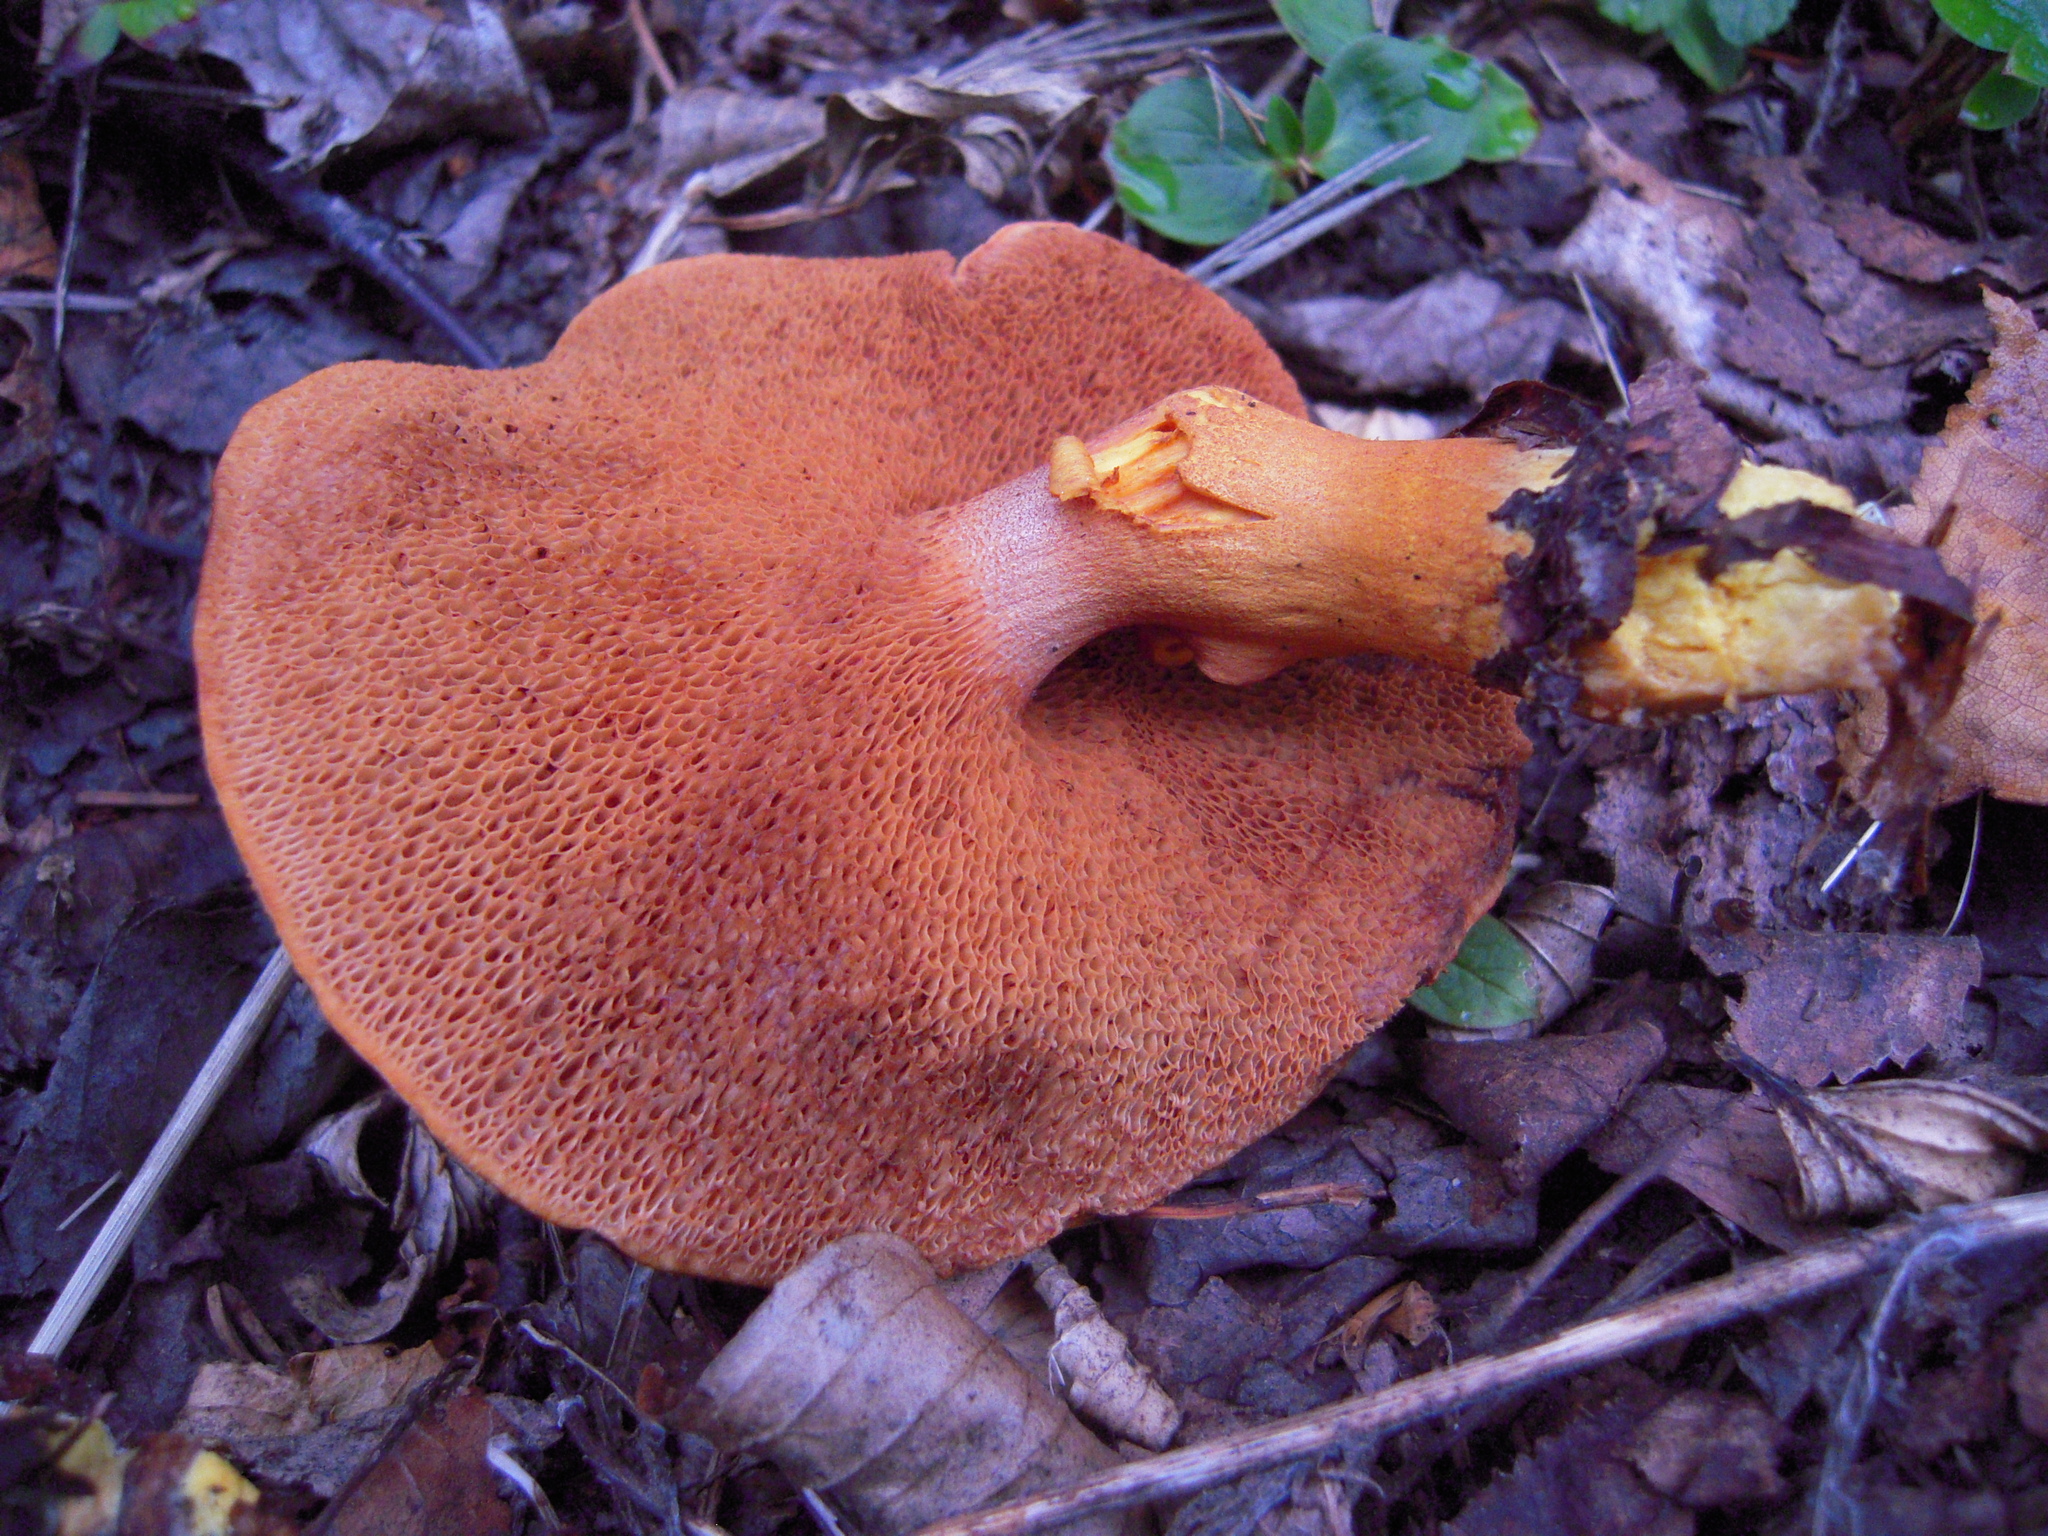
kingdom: Fungi
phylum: Basidiomycota
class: Agaricomycetes
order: Boletales
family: Boletaceae
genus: Chalciporus
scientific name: Chalciporus piperatus
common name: Peppery bolete
